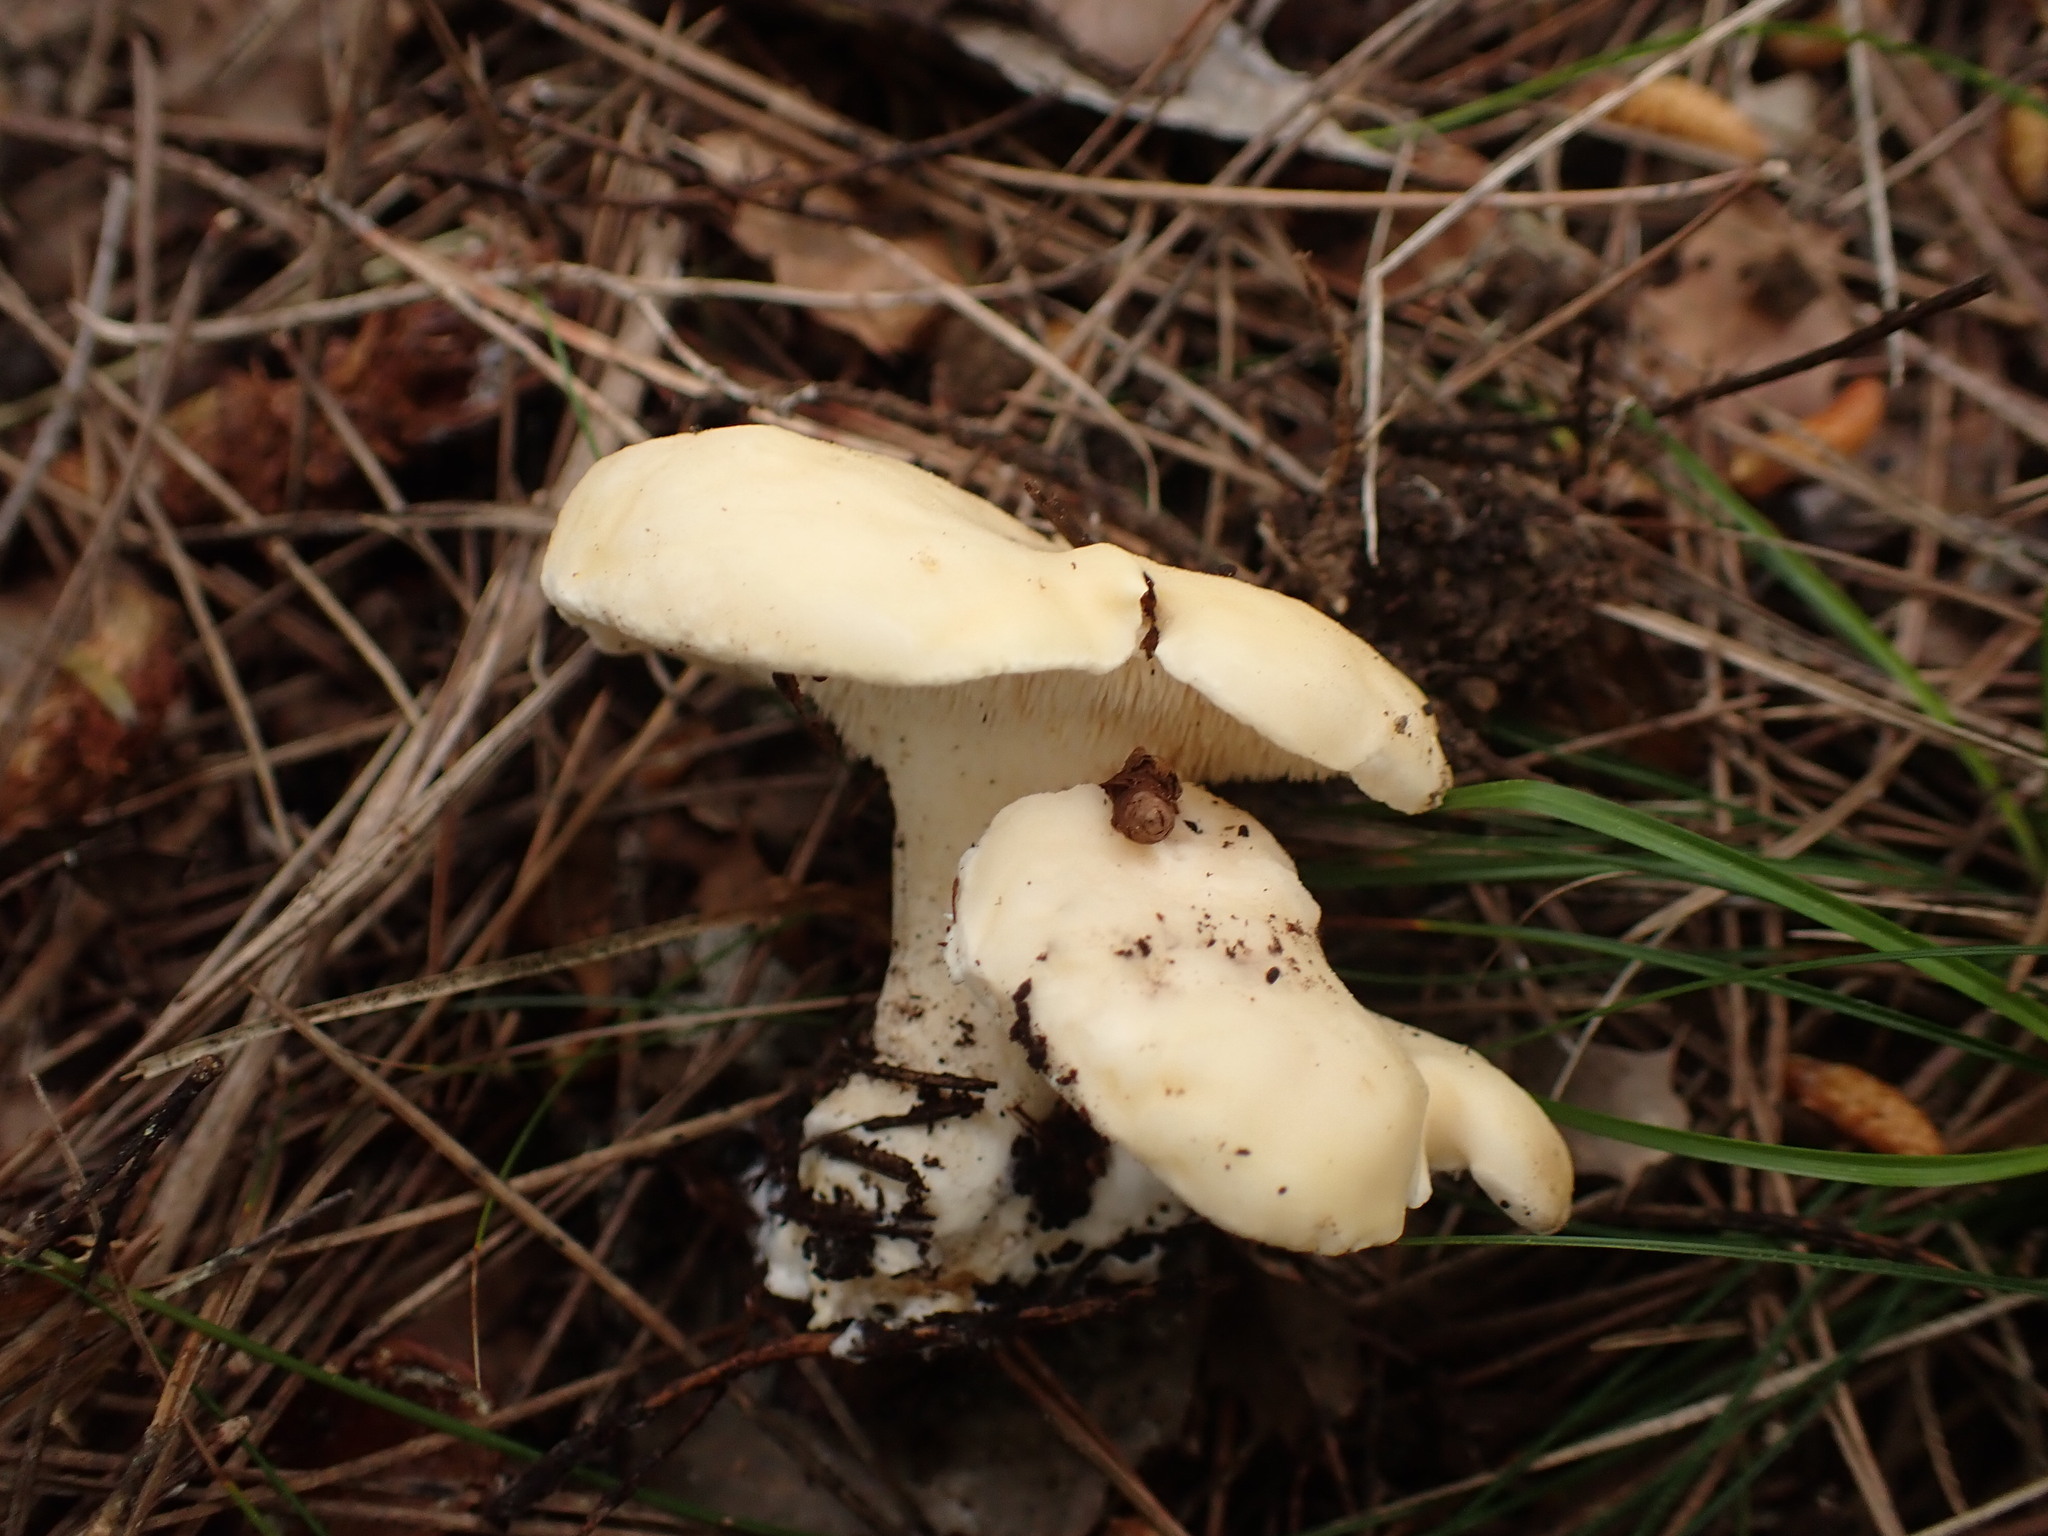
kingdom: Fungi
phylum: Basidiomycota
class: Agaricomycetes
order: Cantharellales
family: Hydnaceae
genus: Hydnum
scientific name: Hydnum repandum
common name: Wood hedgehog
